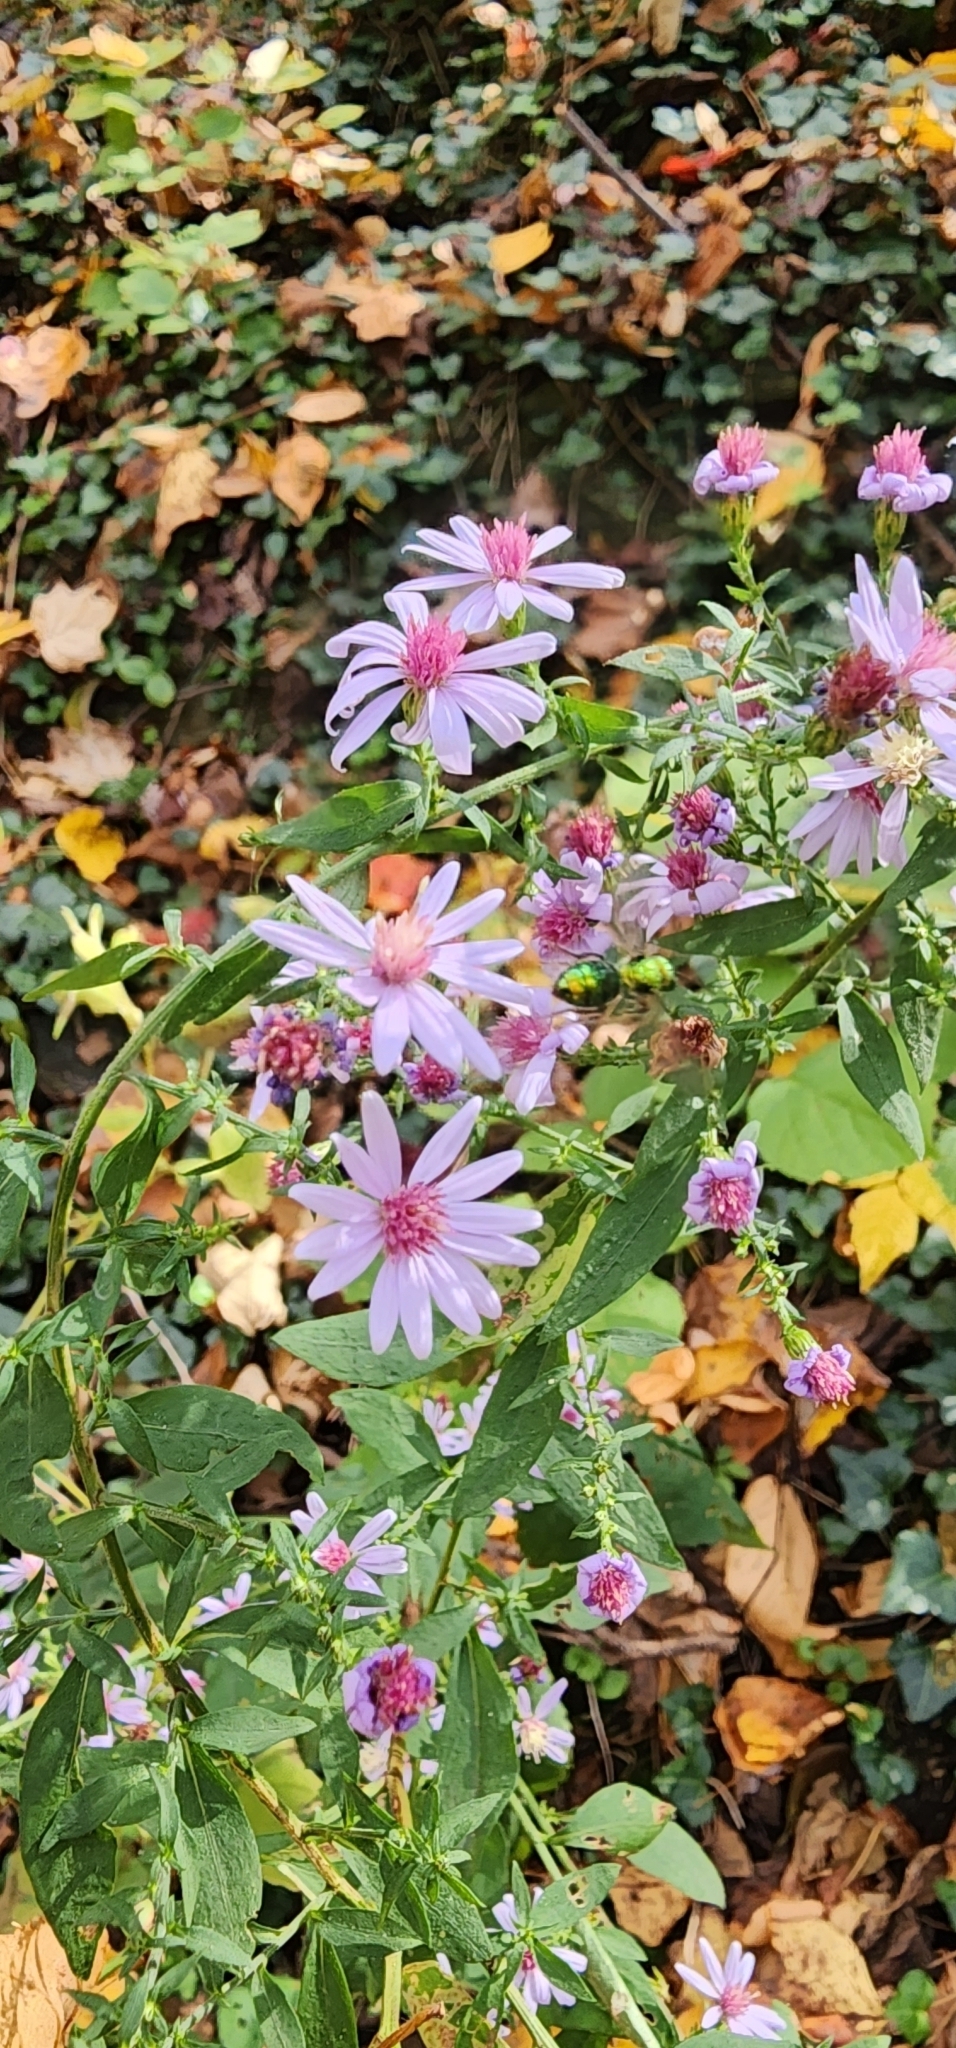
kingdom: Animalia
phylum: Arthropoda
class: Insecta
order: Hymenoptera
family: Halictidae
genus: Augochlora
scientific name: Augochlora pura
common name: Pure green sweat bee
